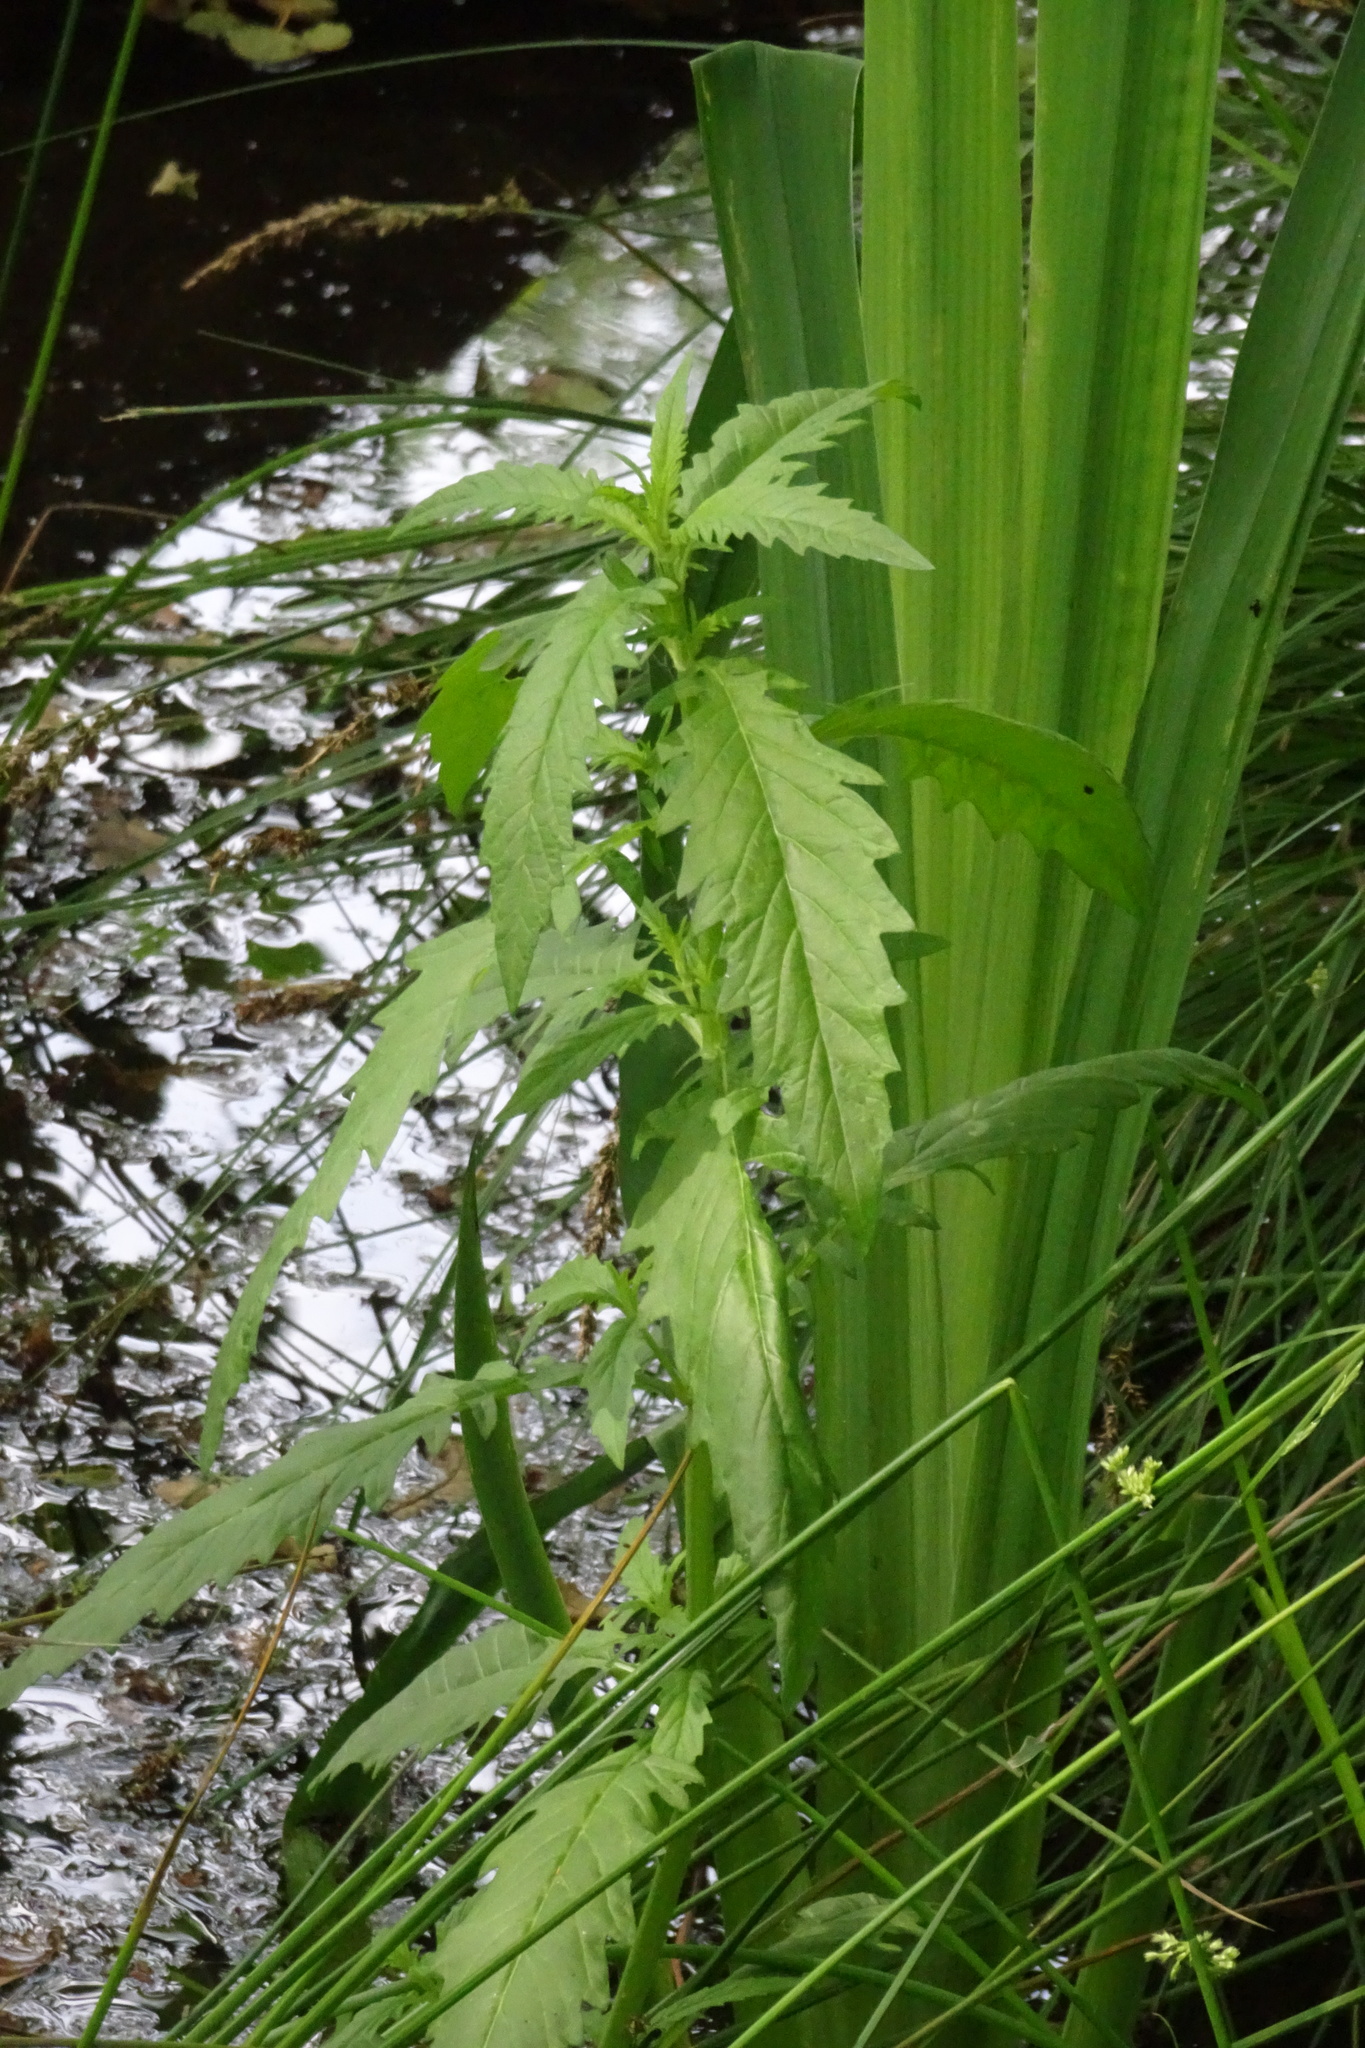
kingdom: Plantae
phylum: Tracheophyta
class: Magnoliopsida
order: Lamiales
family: Lamiaceae
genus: Lycopus
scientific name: Lycopus europaeus
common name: European bugleweed
